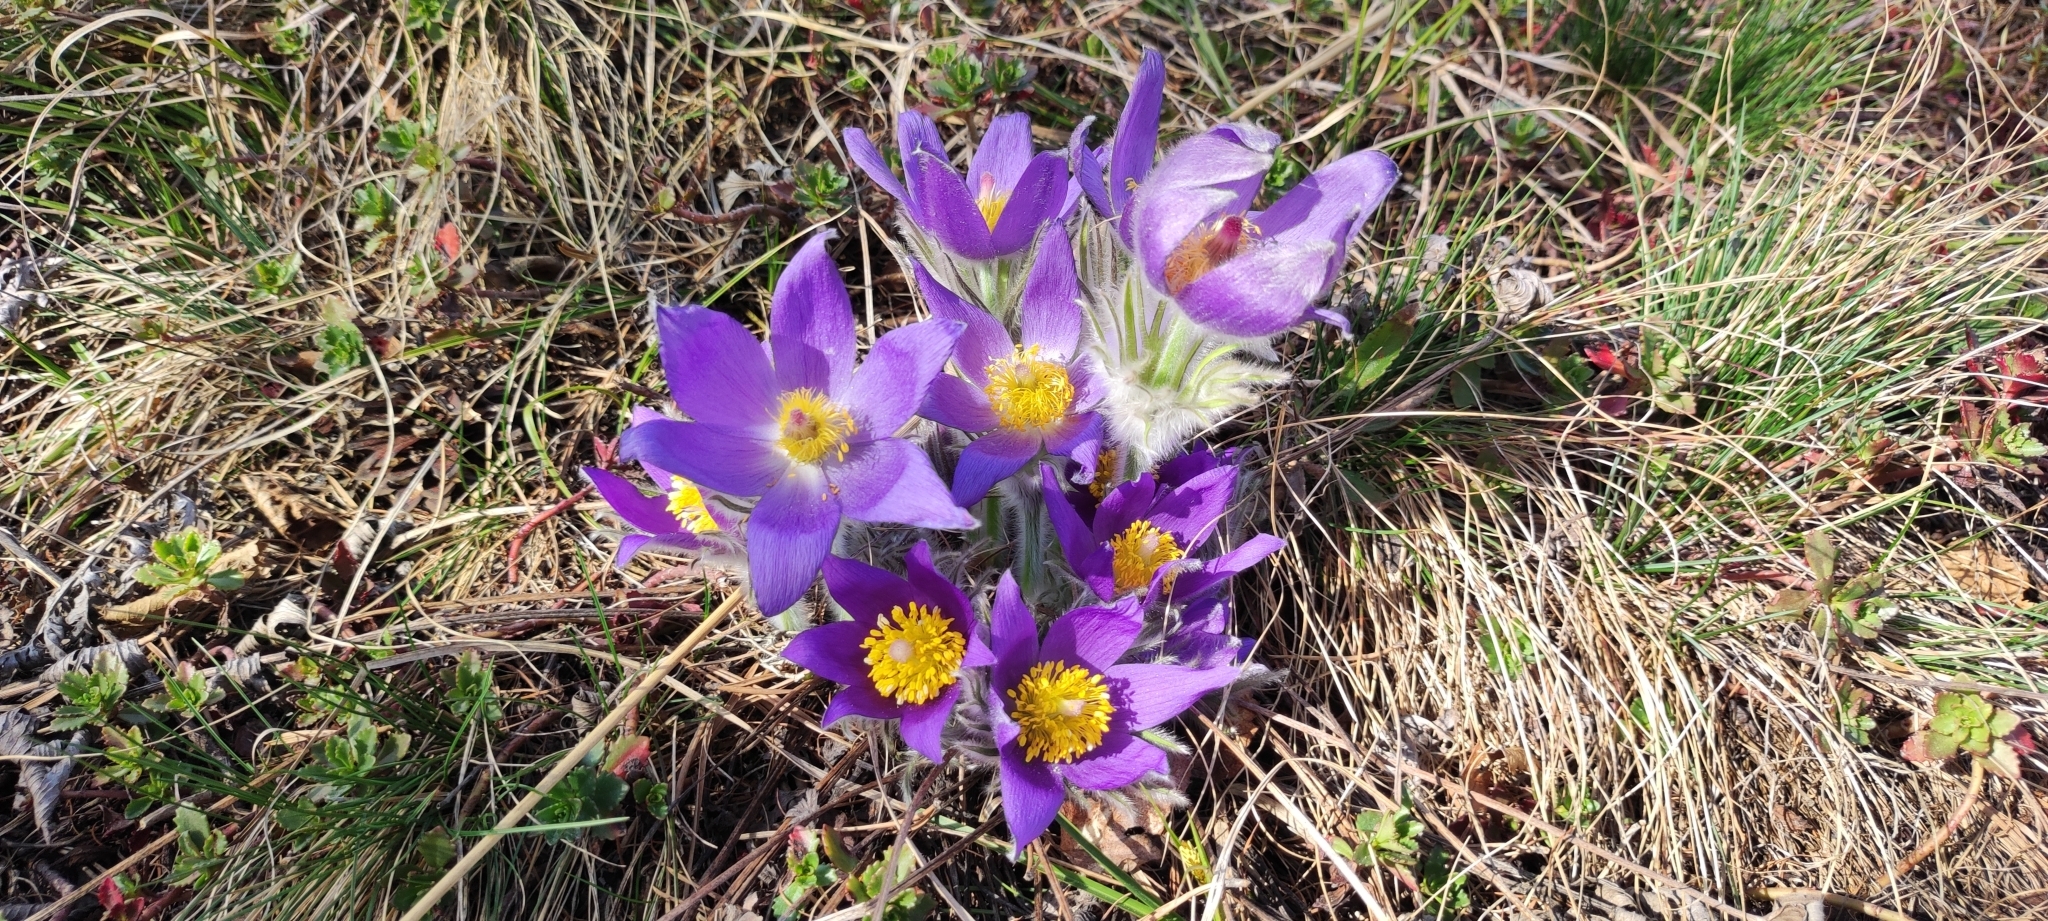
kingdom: Plantae
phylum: Tracheophyta
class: Magnoliopsida
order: Ranunculales
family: Ranunculaceae
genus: Pulsatilla
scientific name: Pulsatilla patens
